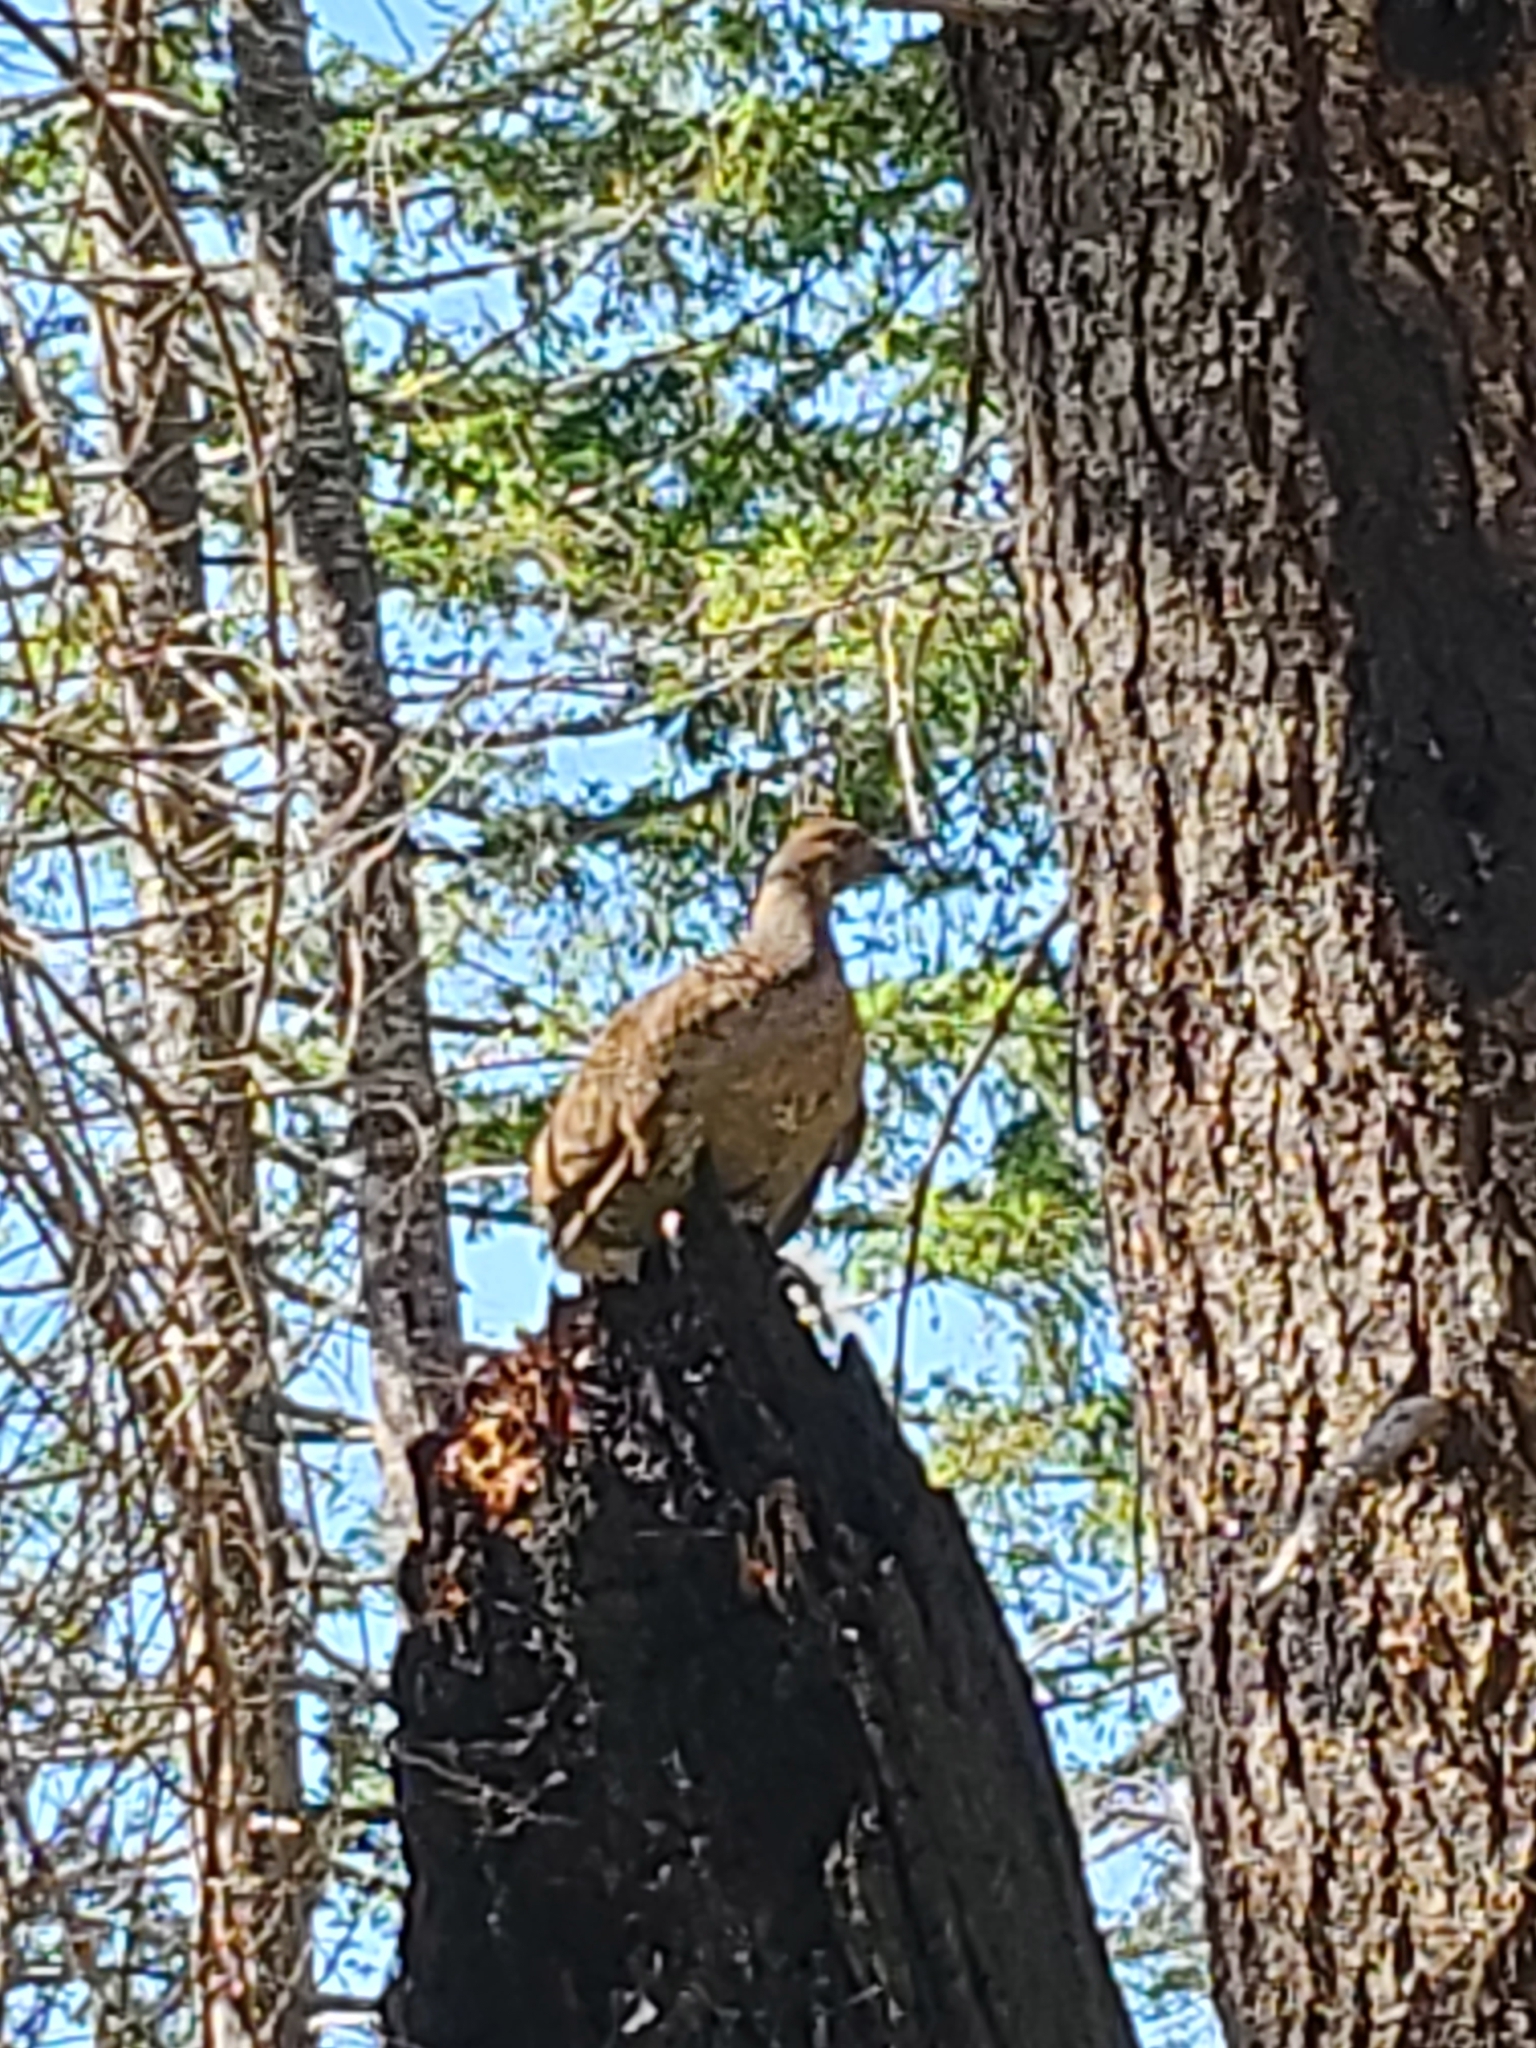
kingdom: Animalia
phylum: Chordata
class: Aves
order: Galliformes
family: Phasianidae
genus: Dendragapus
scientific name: Dendragapus fuliginosus
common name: Sooty grouse
